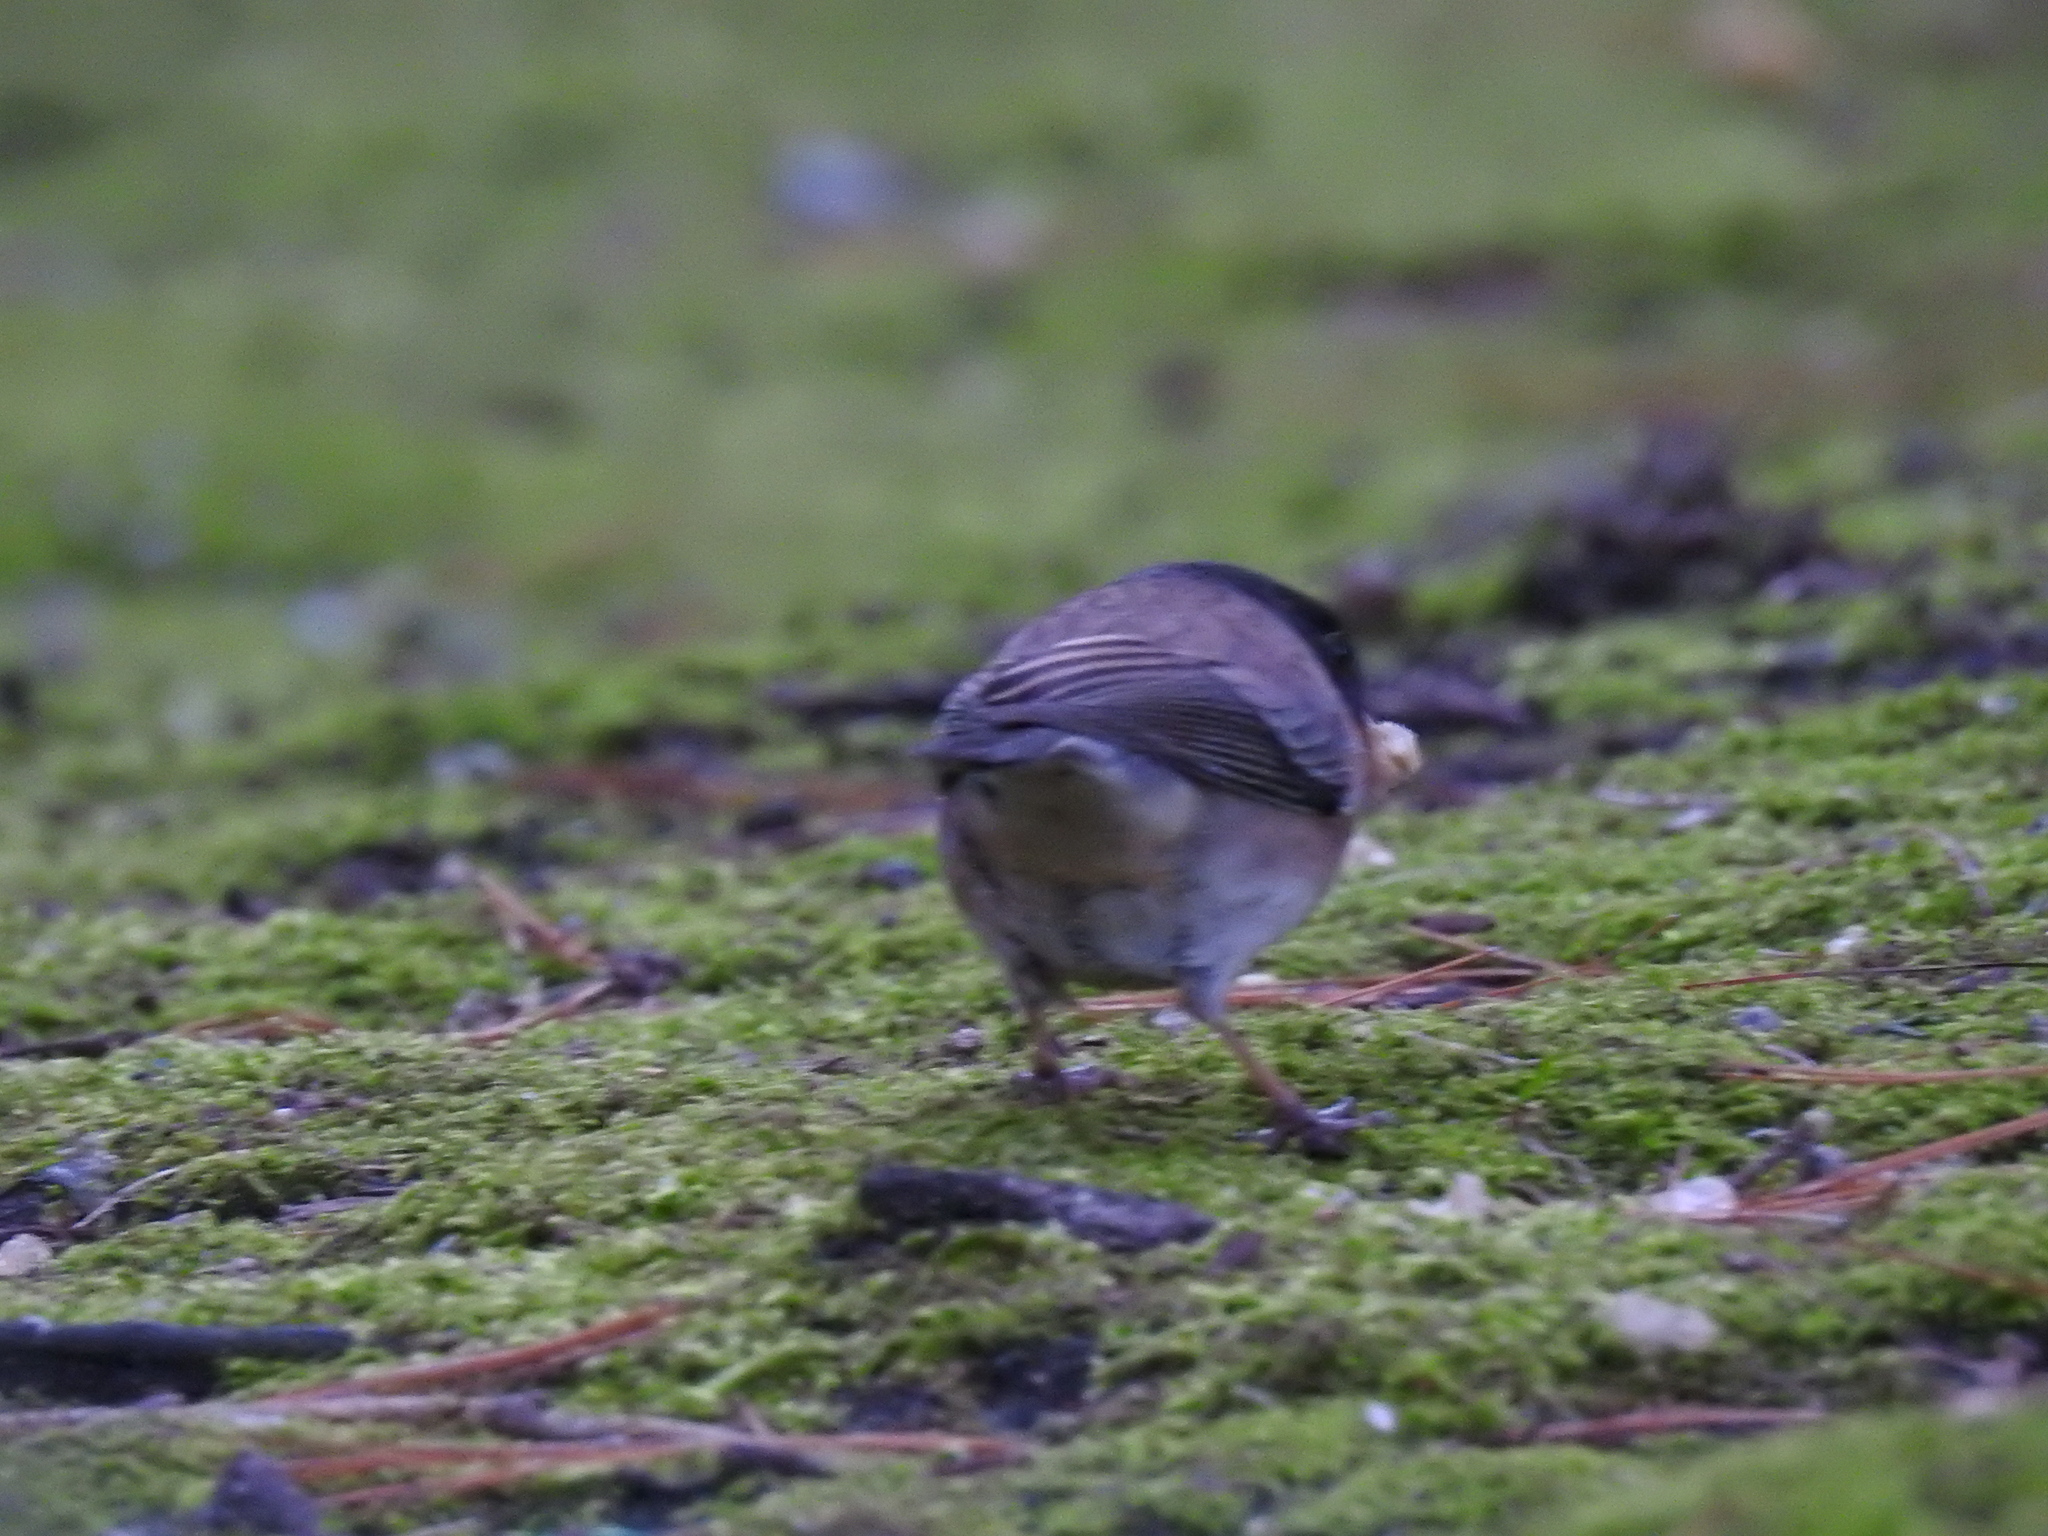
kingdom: Animalia
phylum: Chordata
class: Aves
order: Passeriformes
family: Passerellidae
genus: Junco
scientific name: Junco hyemalis
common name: Dark-eyed junco
